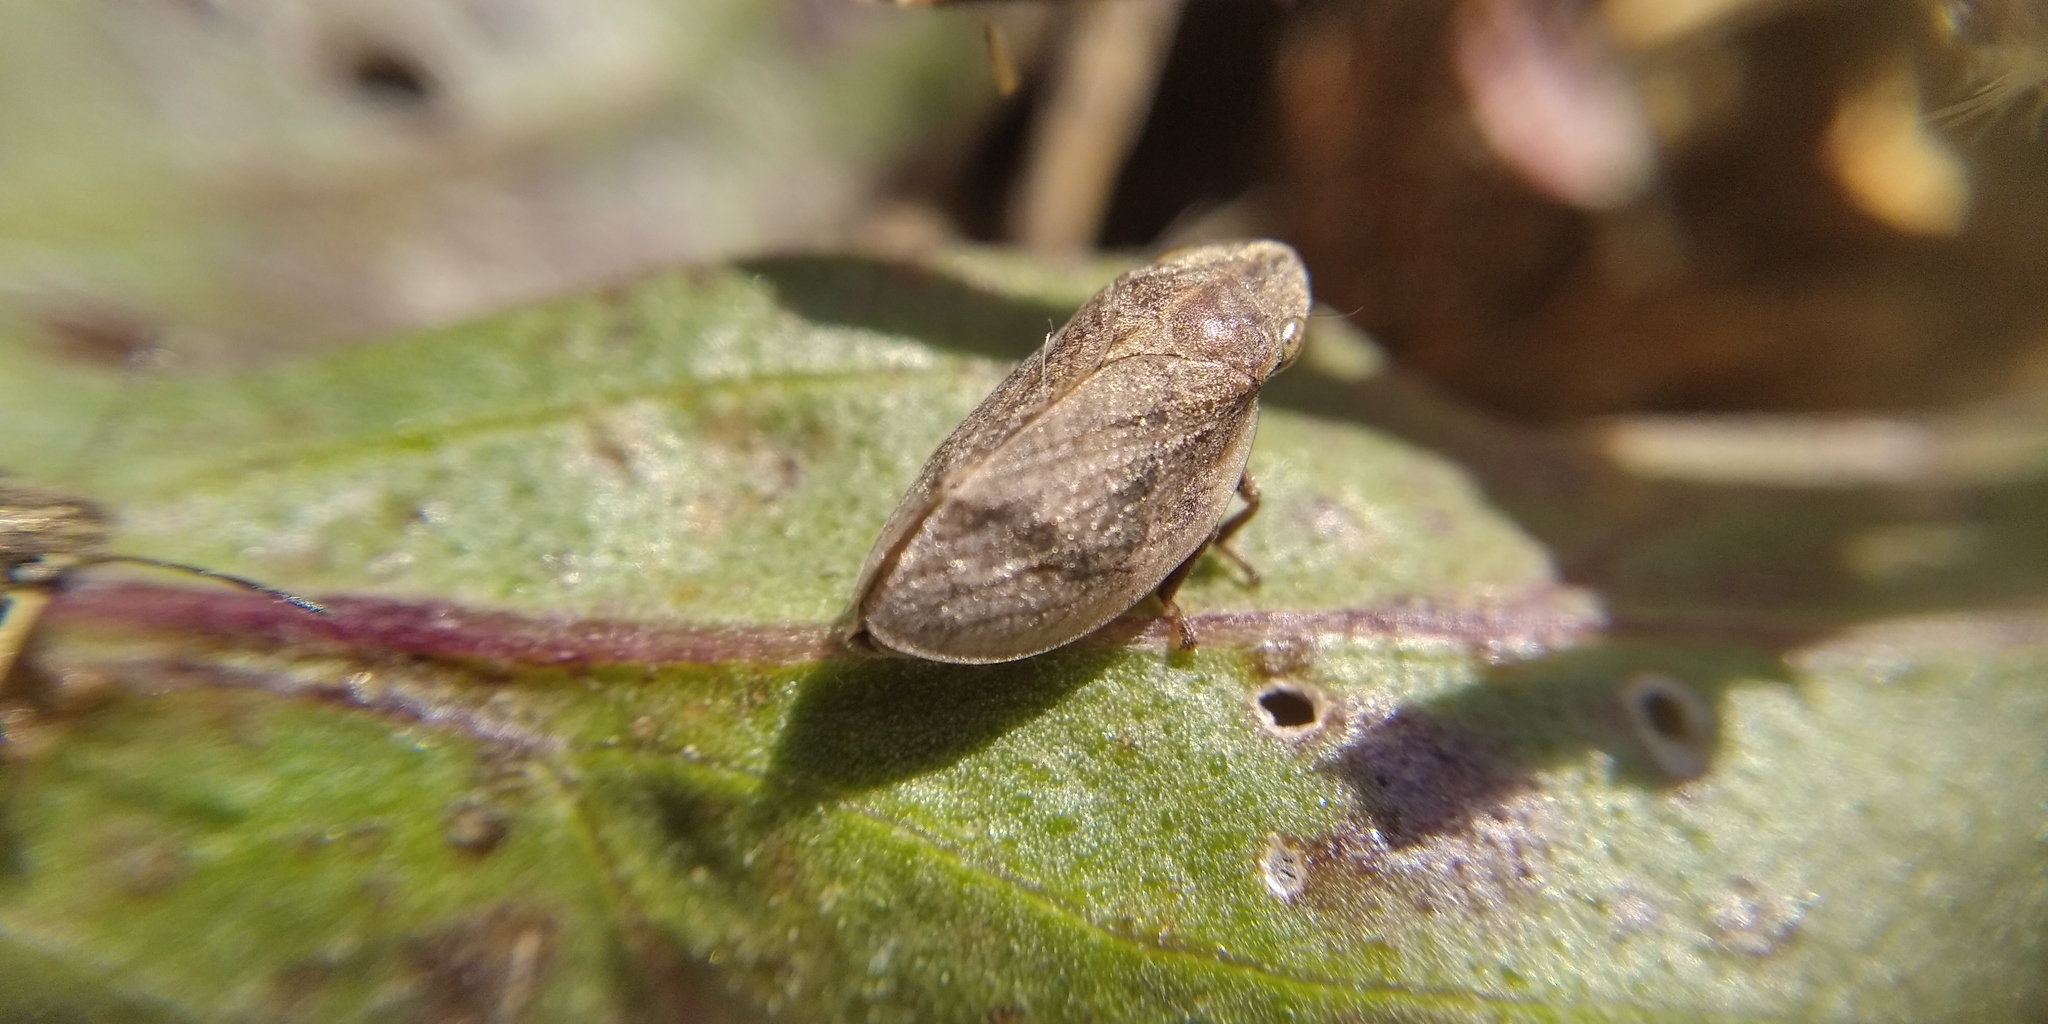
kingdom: Animalia
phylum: Arthropoda
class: Insecta
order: Hemiptera
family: Aphrophoridae
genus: Lepyronia
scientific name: Lepyronia coleoptrata
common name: Leafhopper
